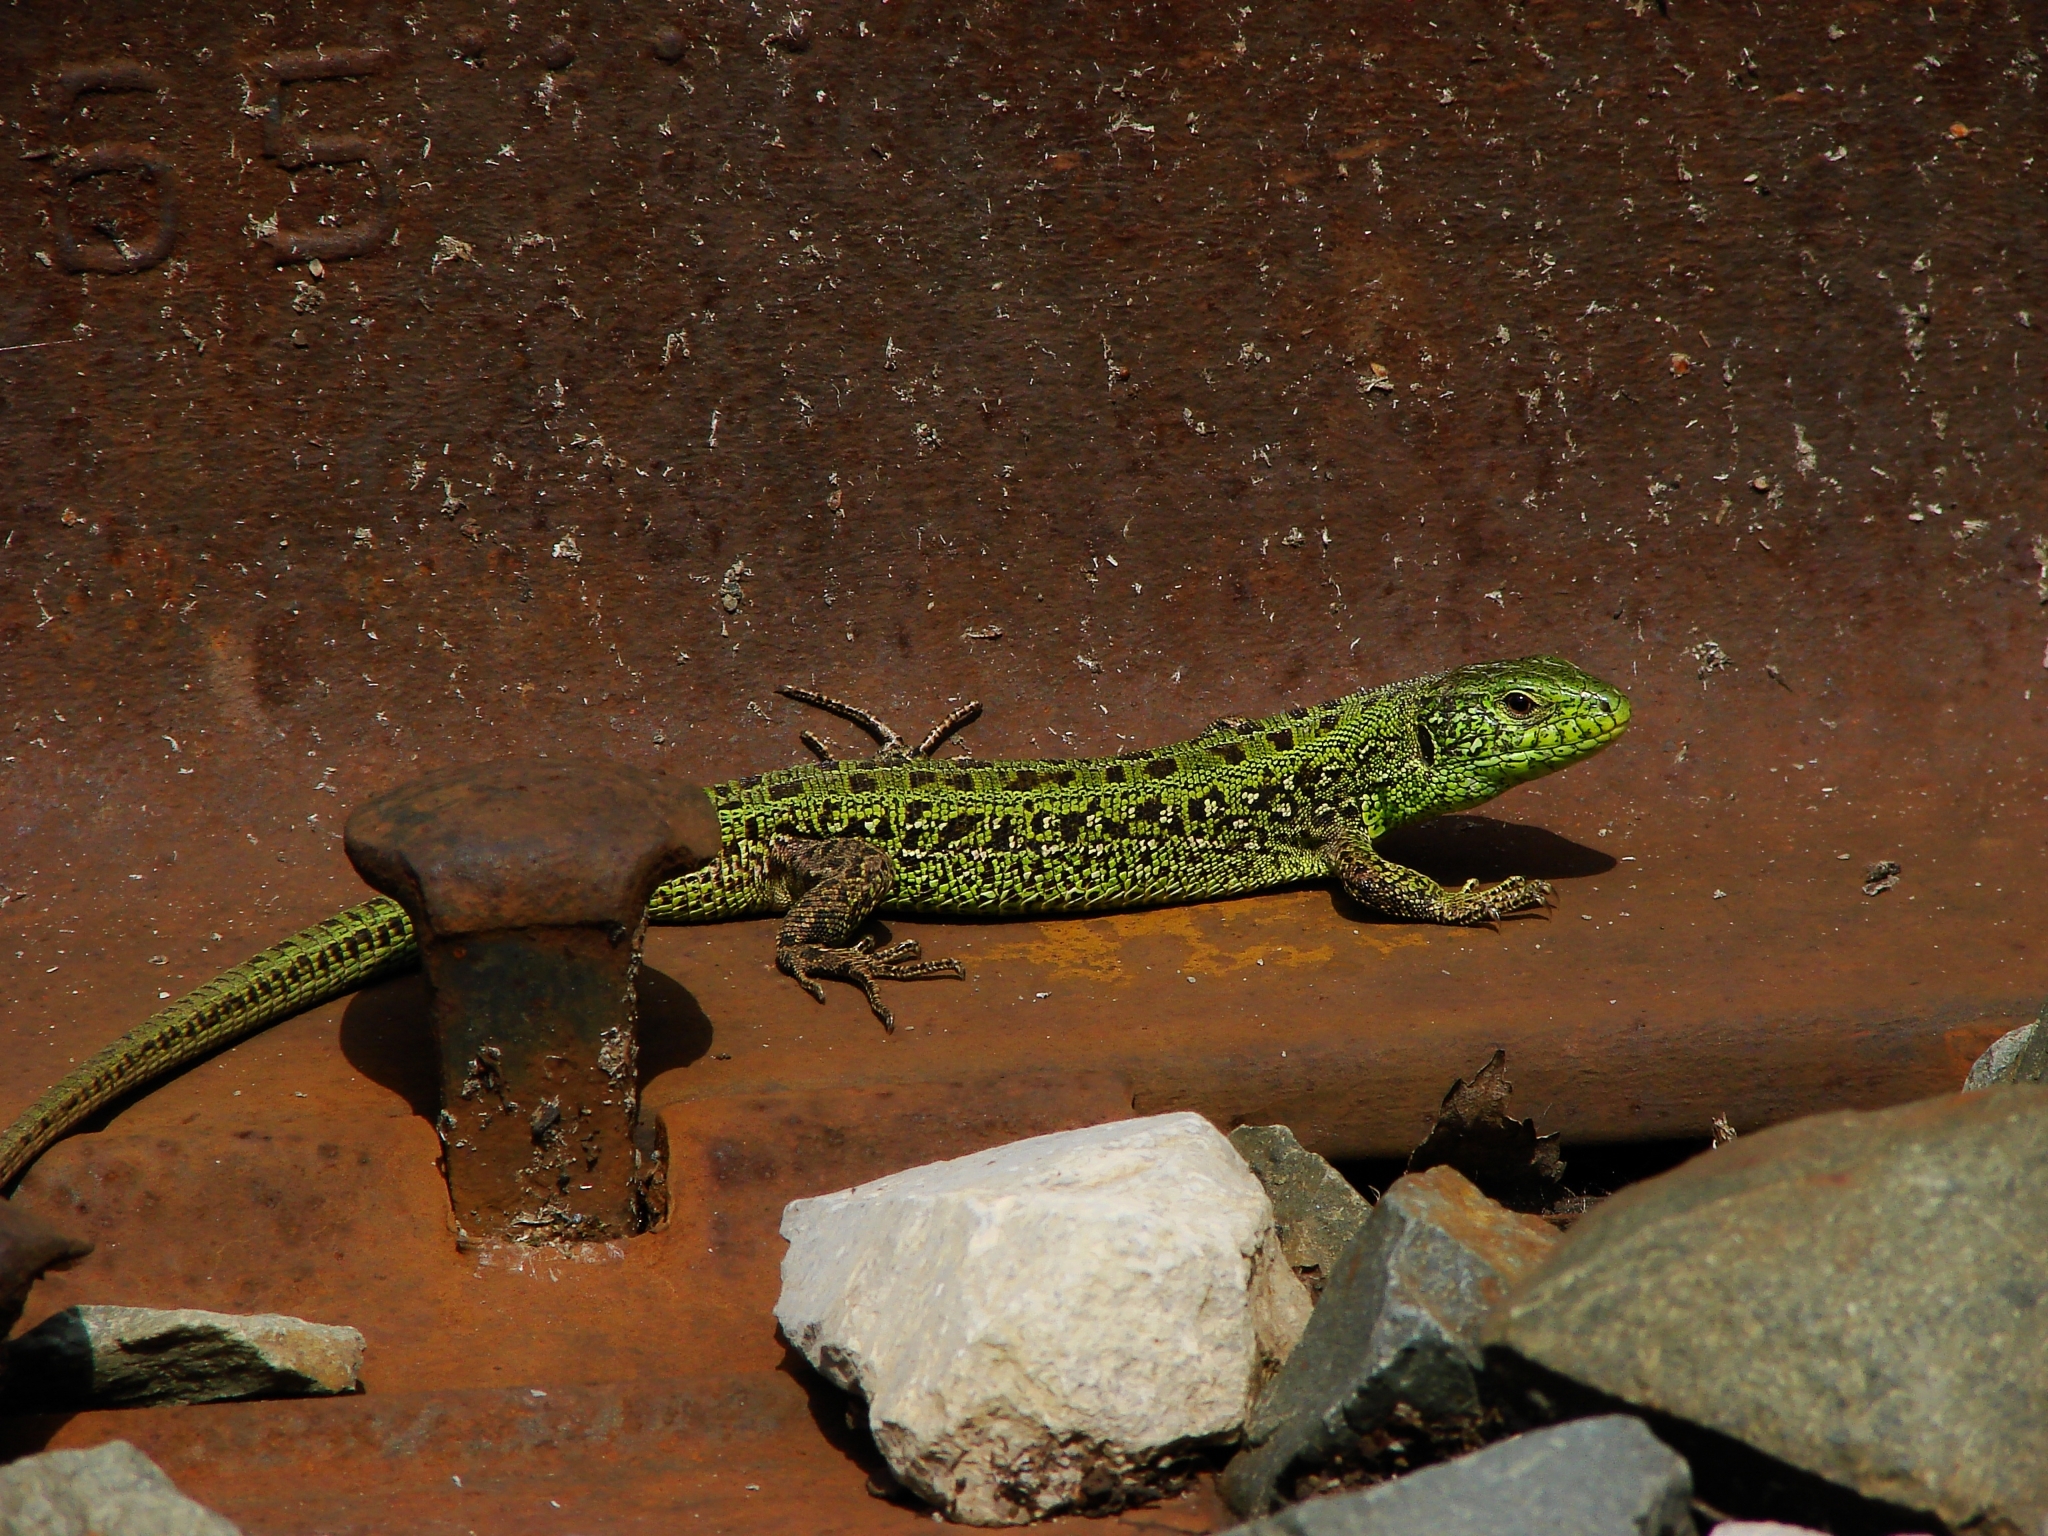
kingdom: Animalia
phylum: Chordata
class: Squamata
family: Lacertidae
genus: Lacerta
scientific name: Lacerta agilis
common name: Sand lizard
